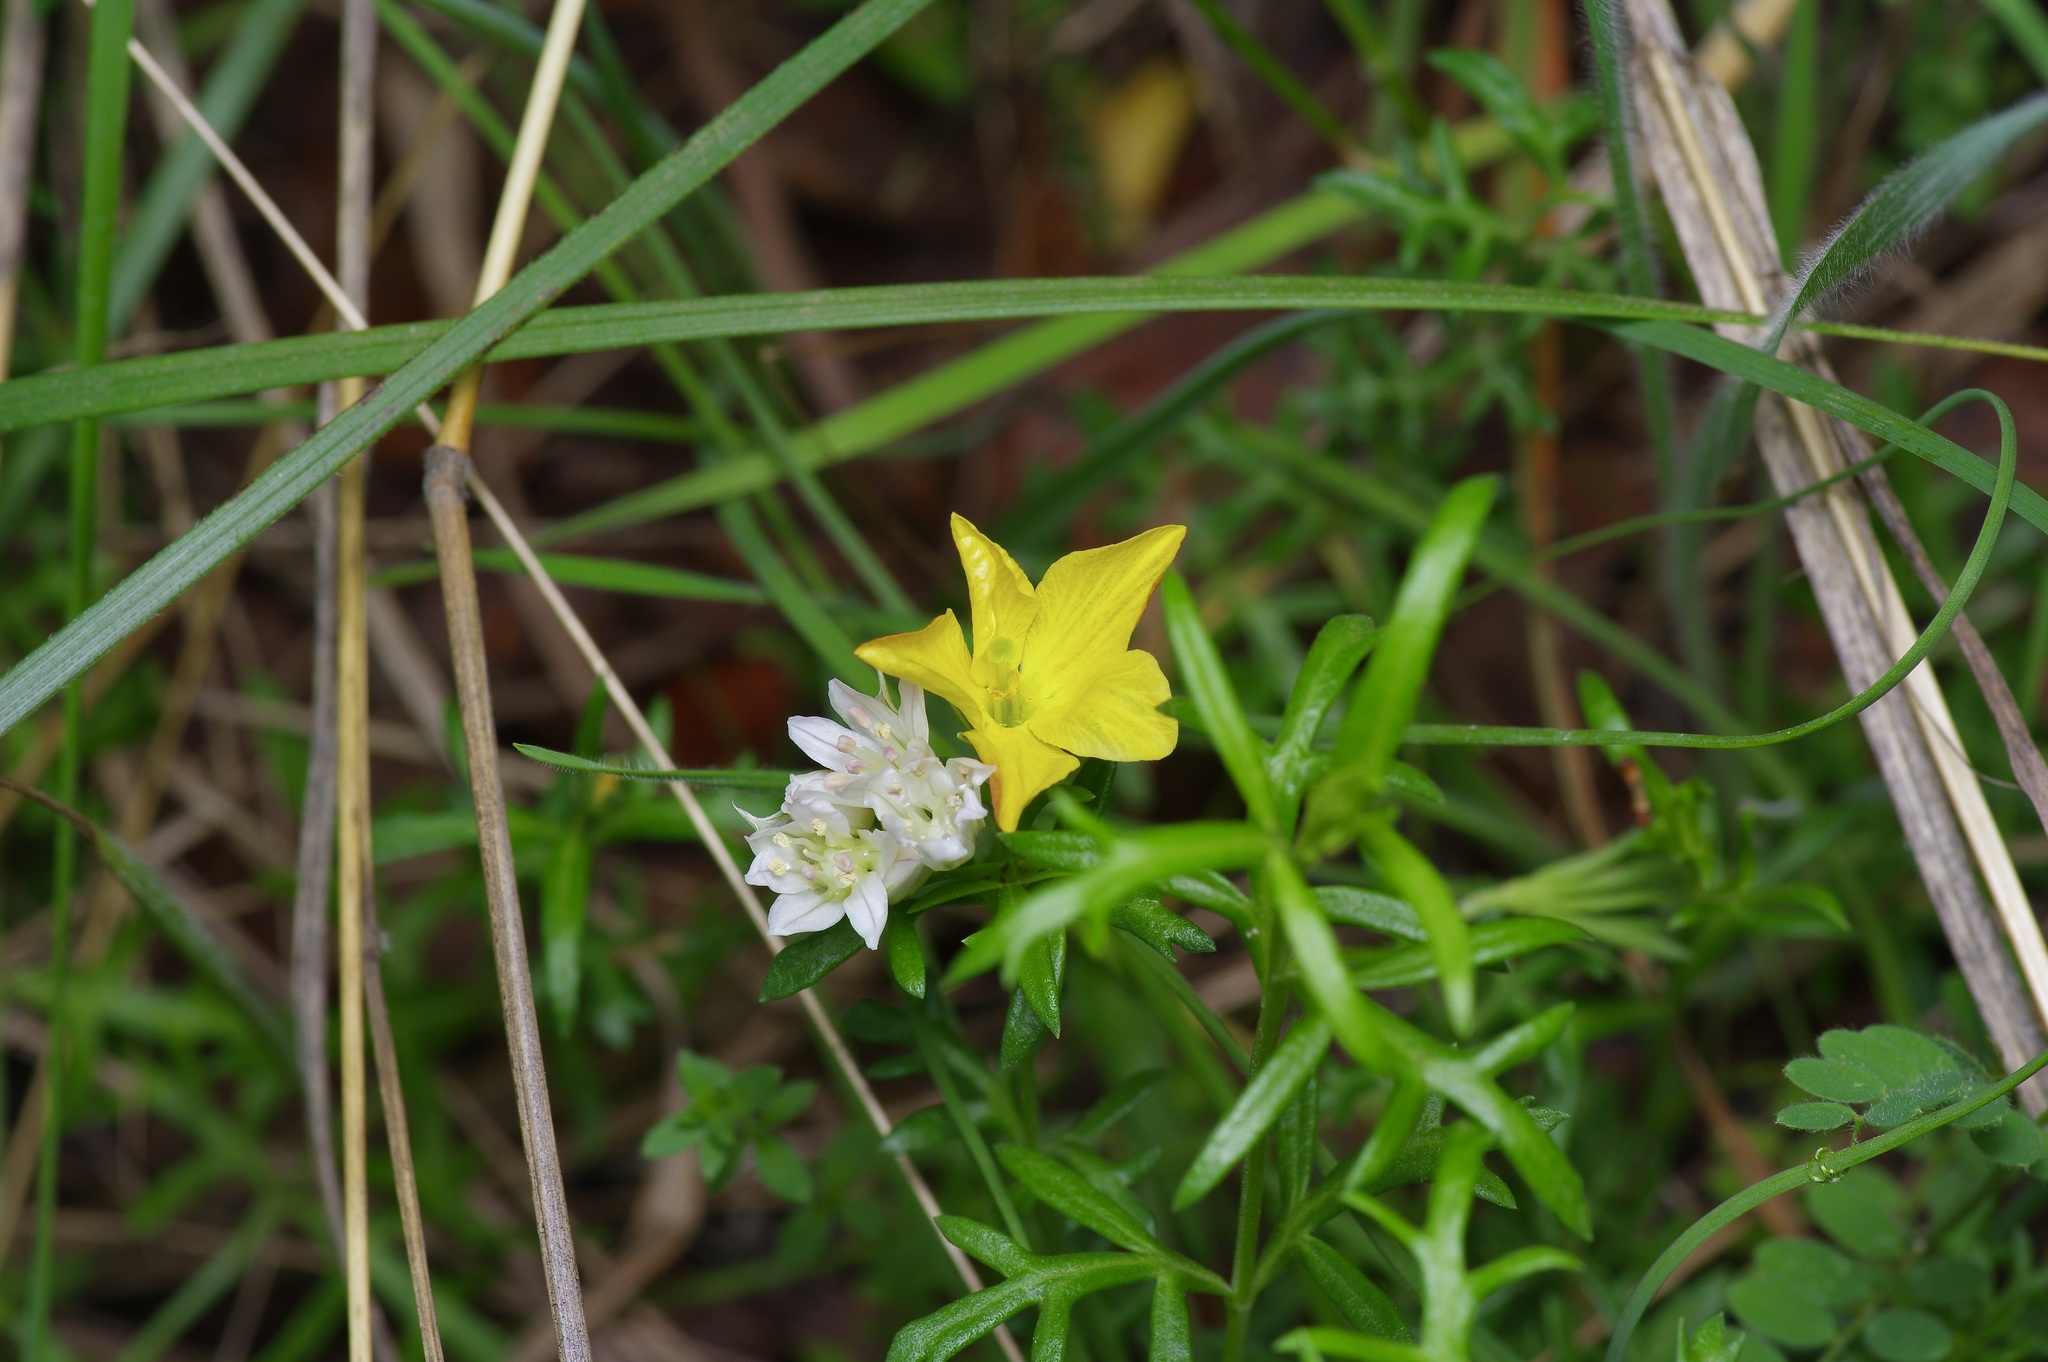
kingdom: Plantae
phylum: Tracheophyta
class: Magnoliopsida
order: Lamiales
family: Oleaceae
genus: Menodora
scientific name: Menodora heterophylla
